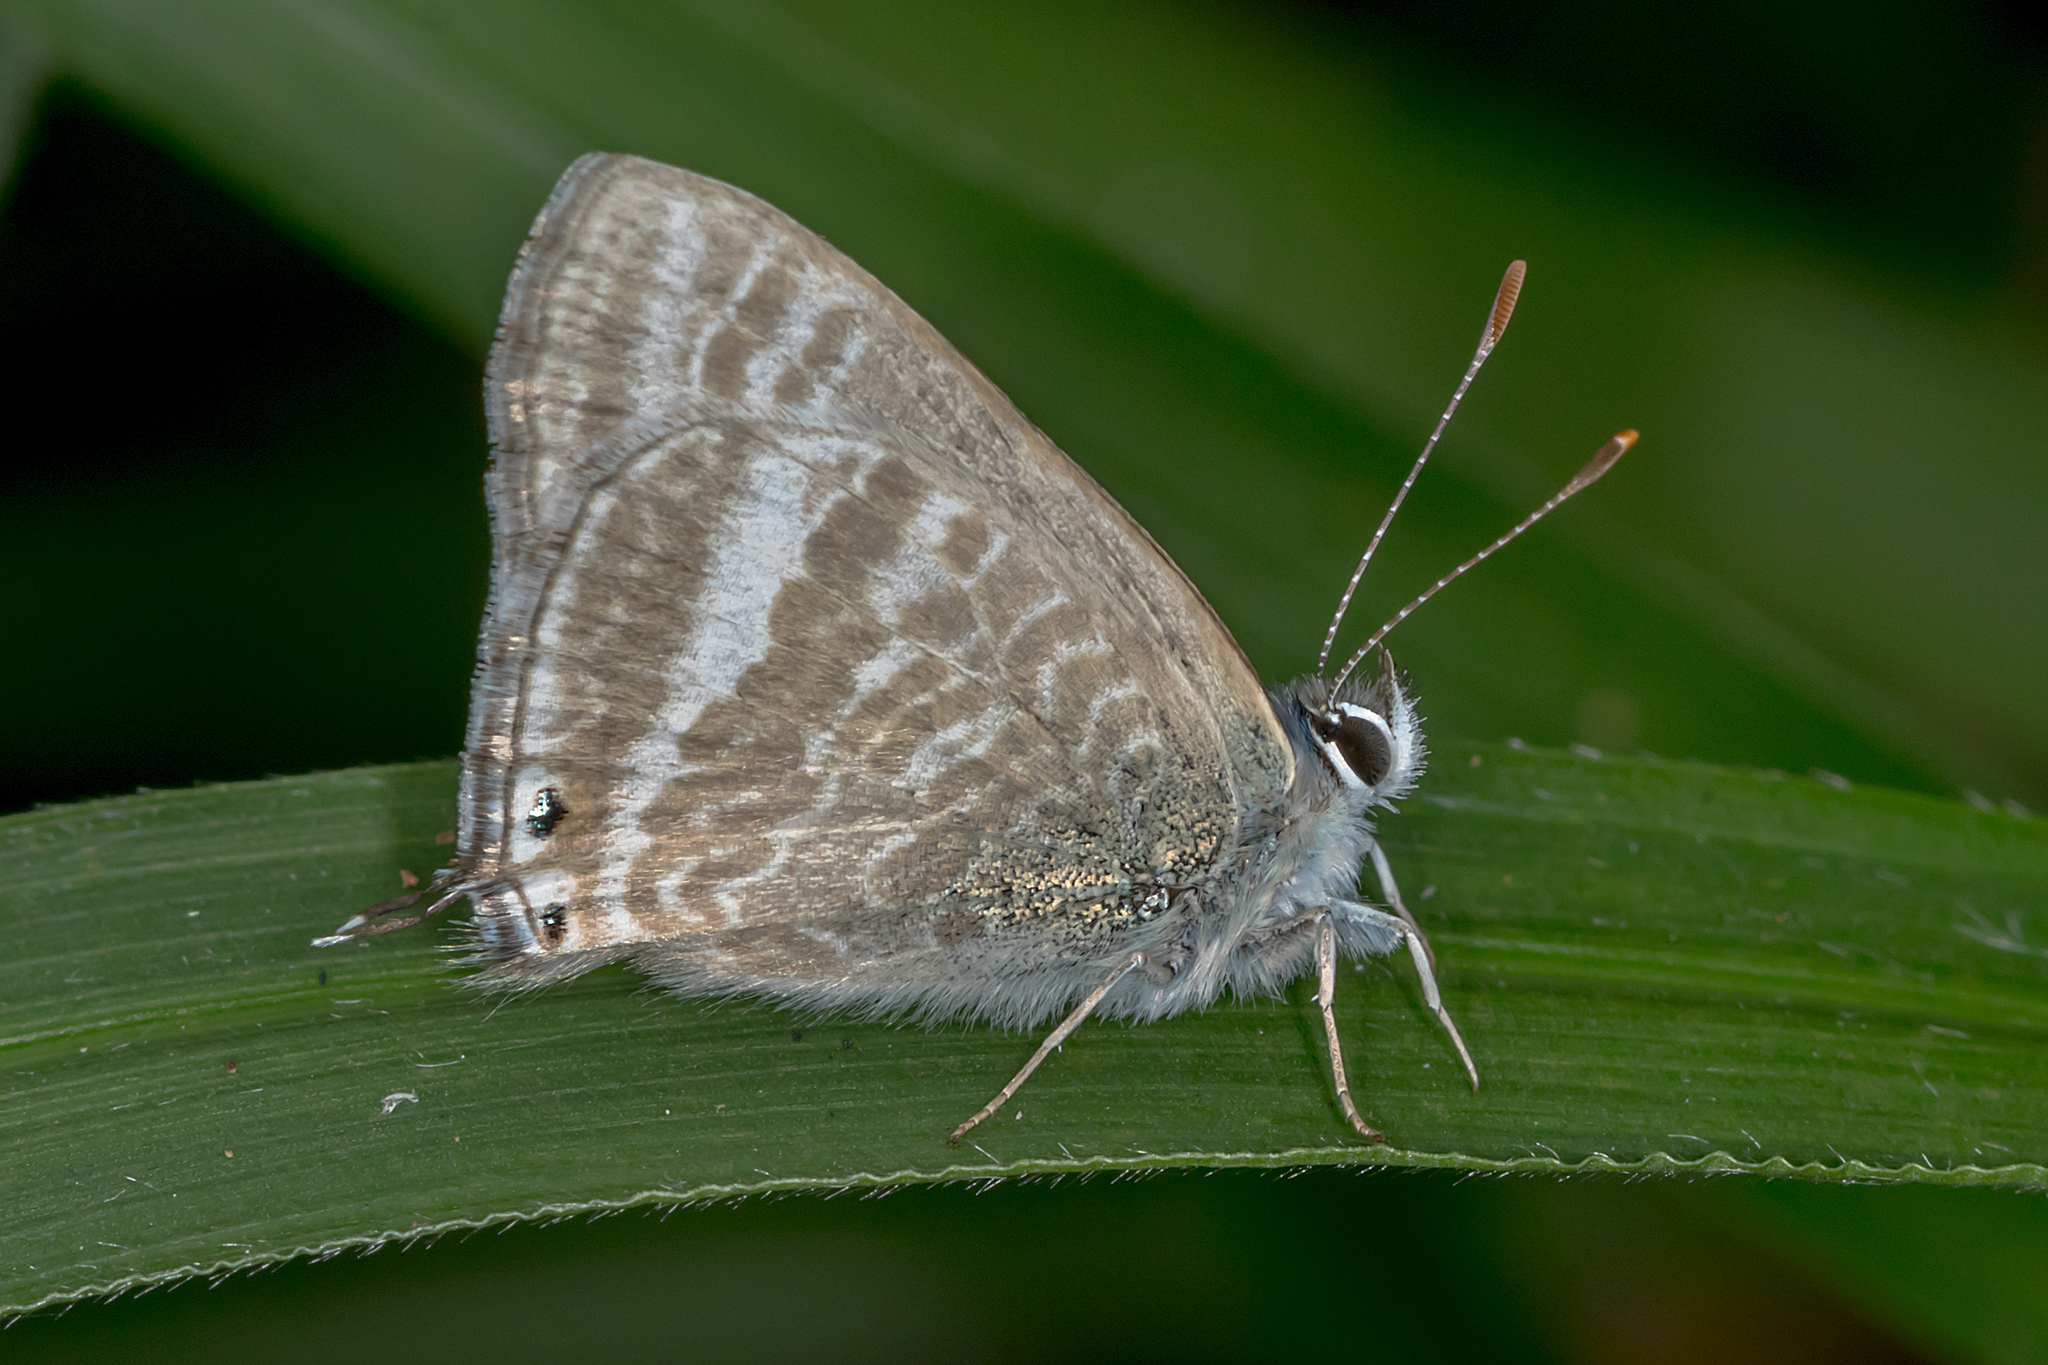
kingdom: Animalia
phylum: Arthropoda
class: Insecta
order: Lepidoptera
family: Lycaenidae
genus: Lampides
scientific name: Lampides boeticus
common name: Long-tailed blue
